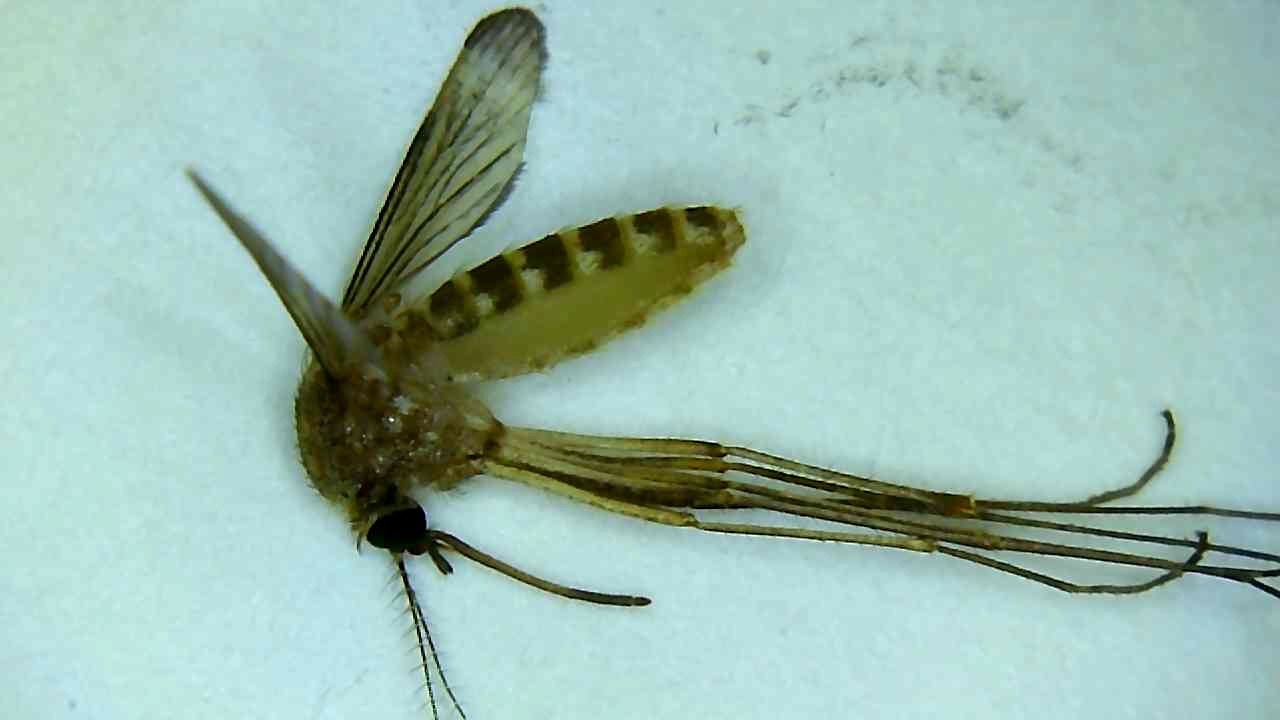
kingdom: Animalia
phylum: Arthropoda
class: Insecta
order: Diptera
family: Culicidae
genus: Culex
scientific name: Culex quinquefasciatus
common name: Southern house mosquito
